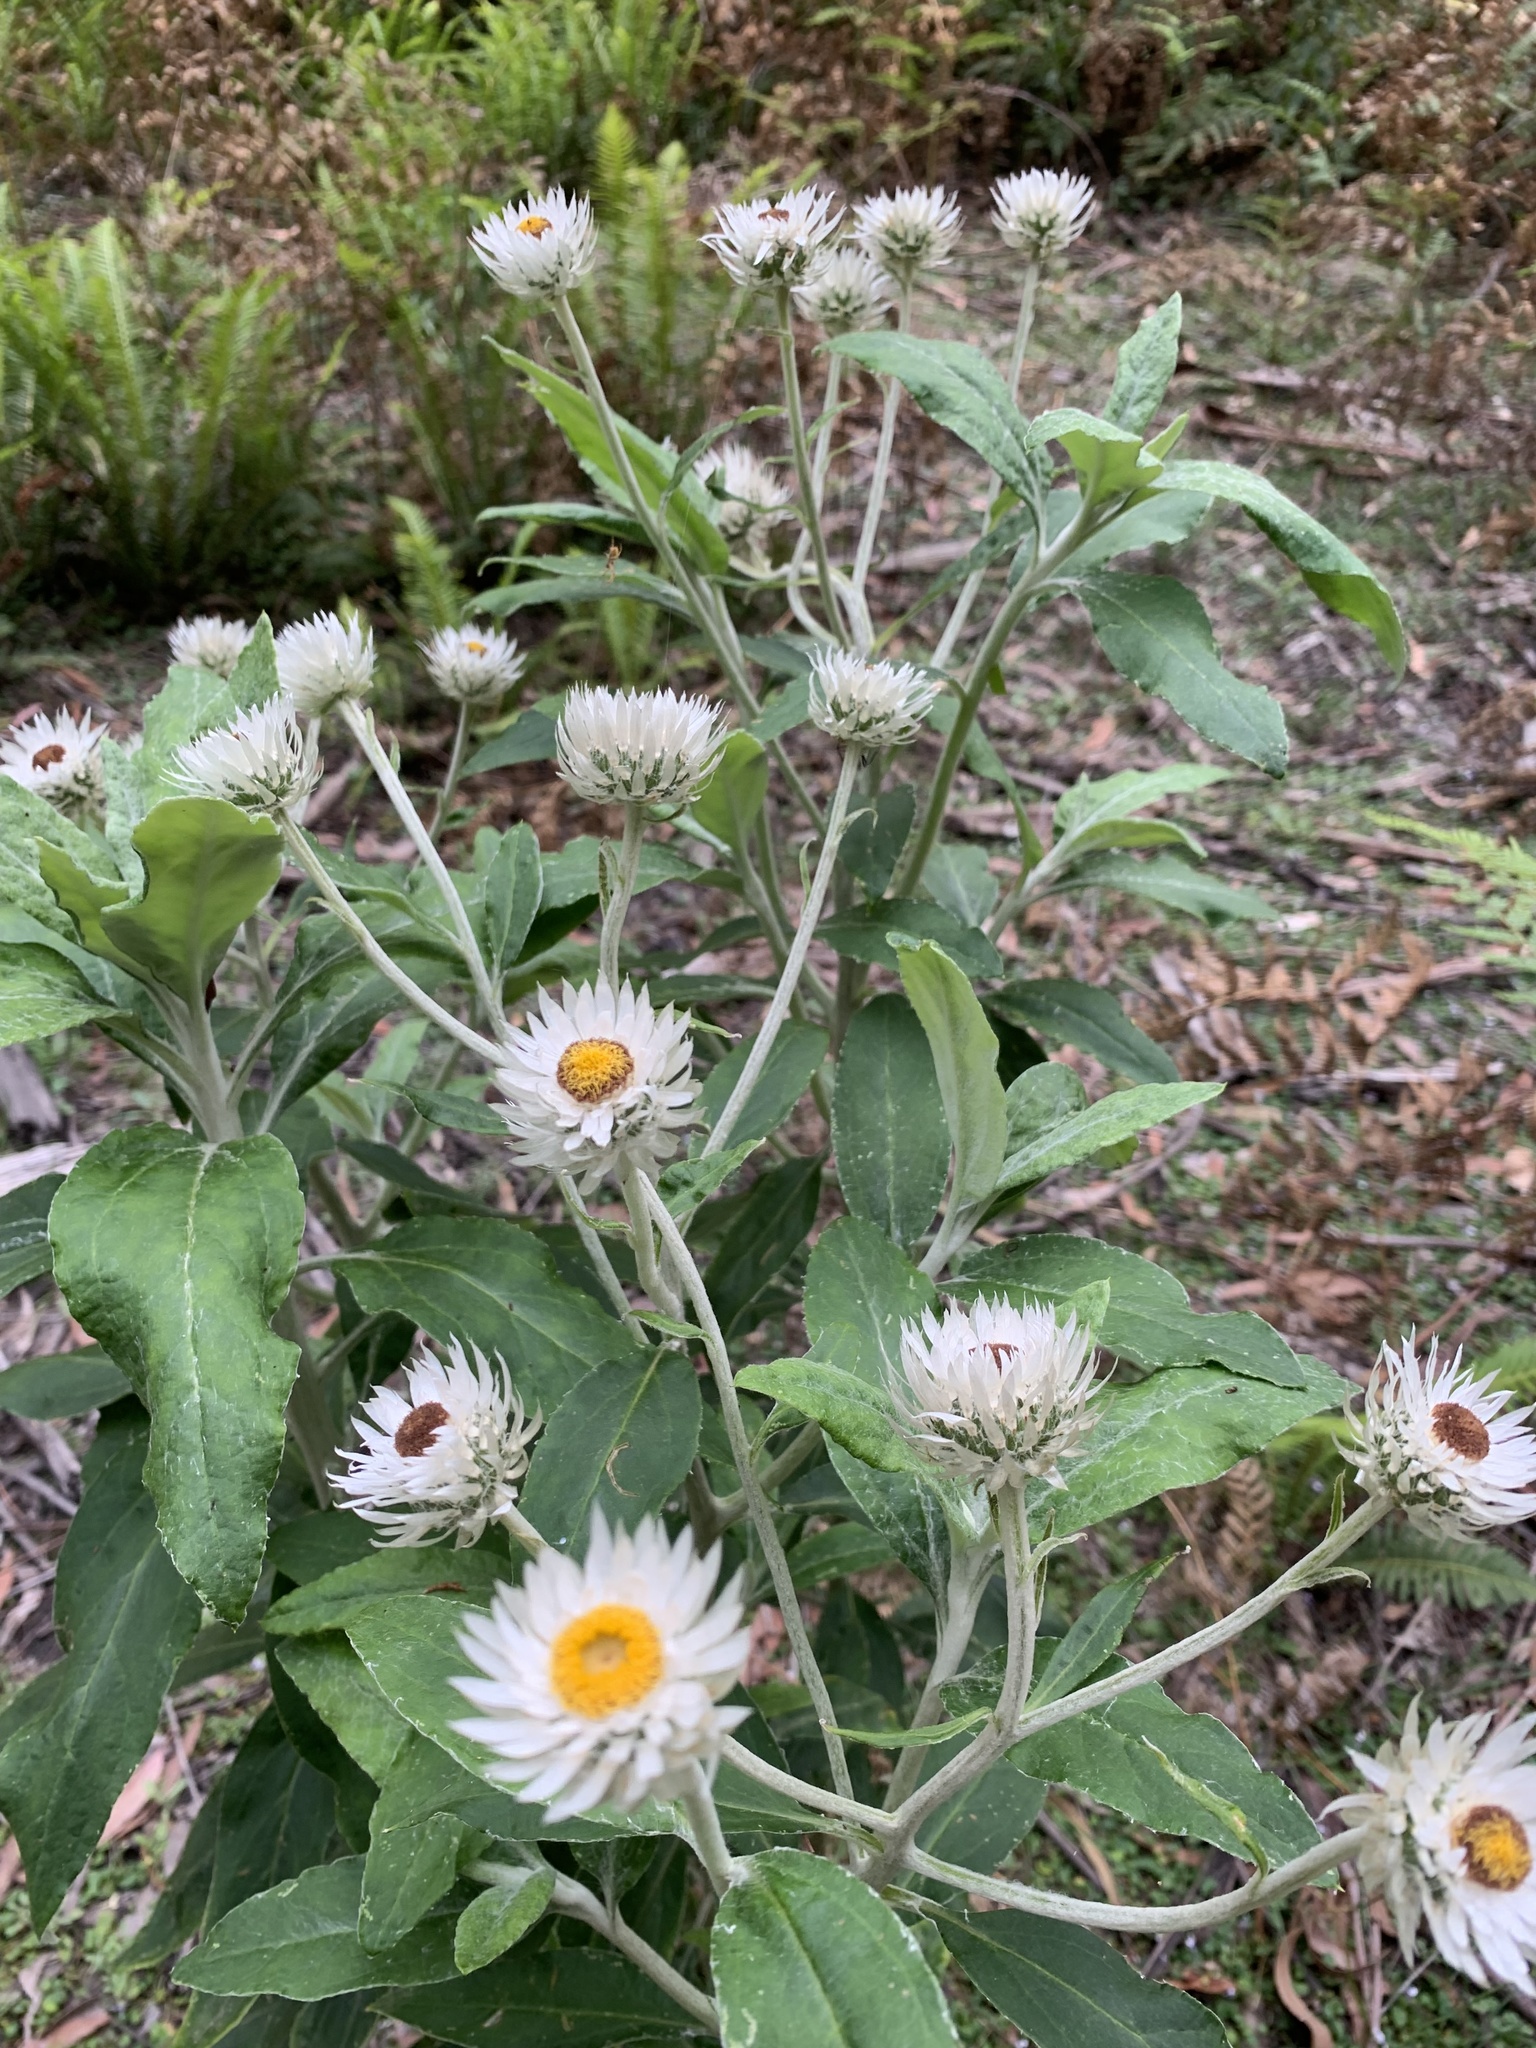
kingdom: Plantae
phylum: Tracheophyta
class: Magnoliopsida
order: Asterales
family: Asteraceae
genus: Leucozoma
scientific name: Leucozoma elatum
